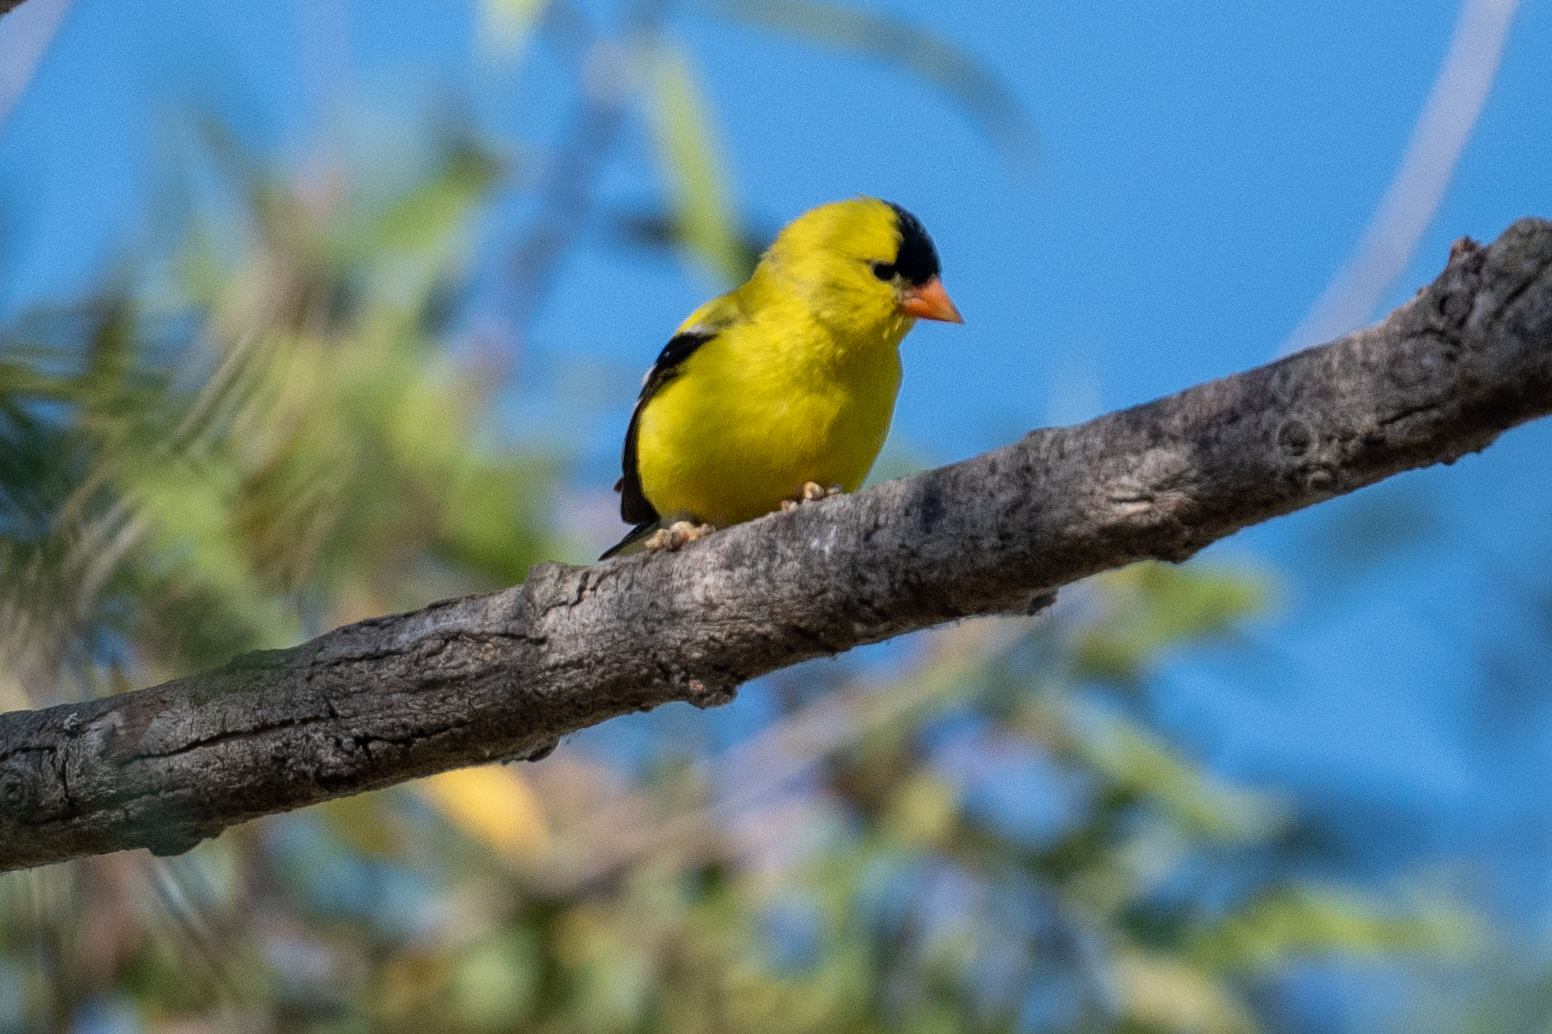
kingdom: Animalia
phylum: Chordata
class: Aves
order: Passeriformes
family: Fringillidae
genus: Spinus
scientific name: Spinus tristis
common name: American goldfinch
